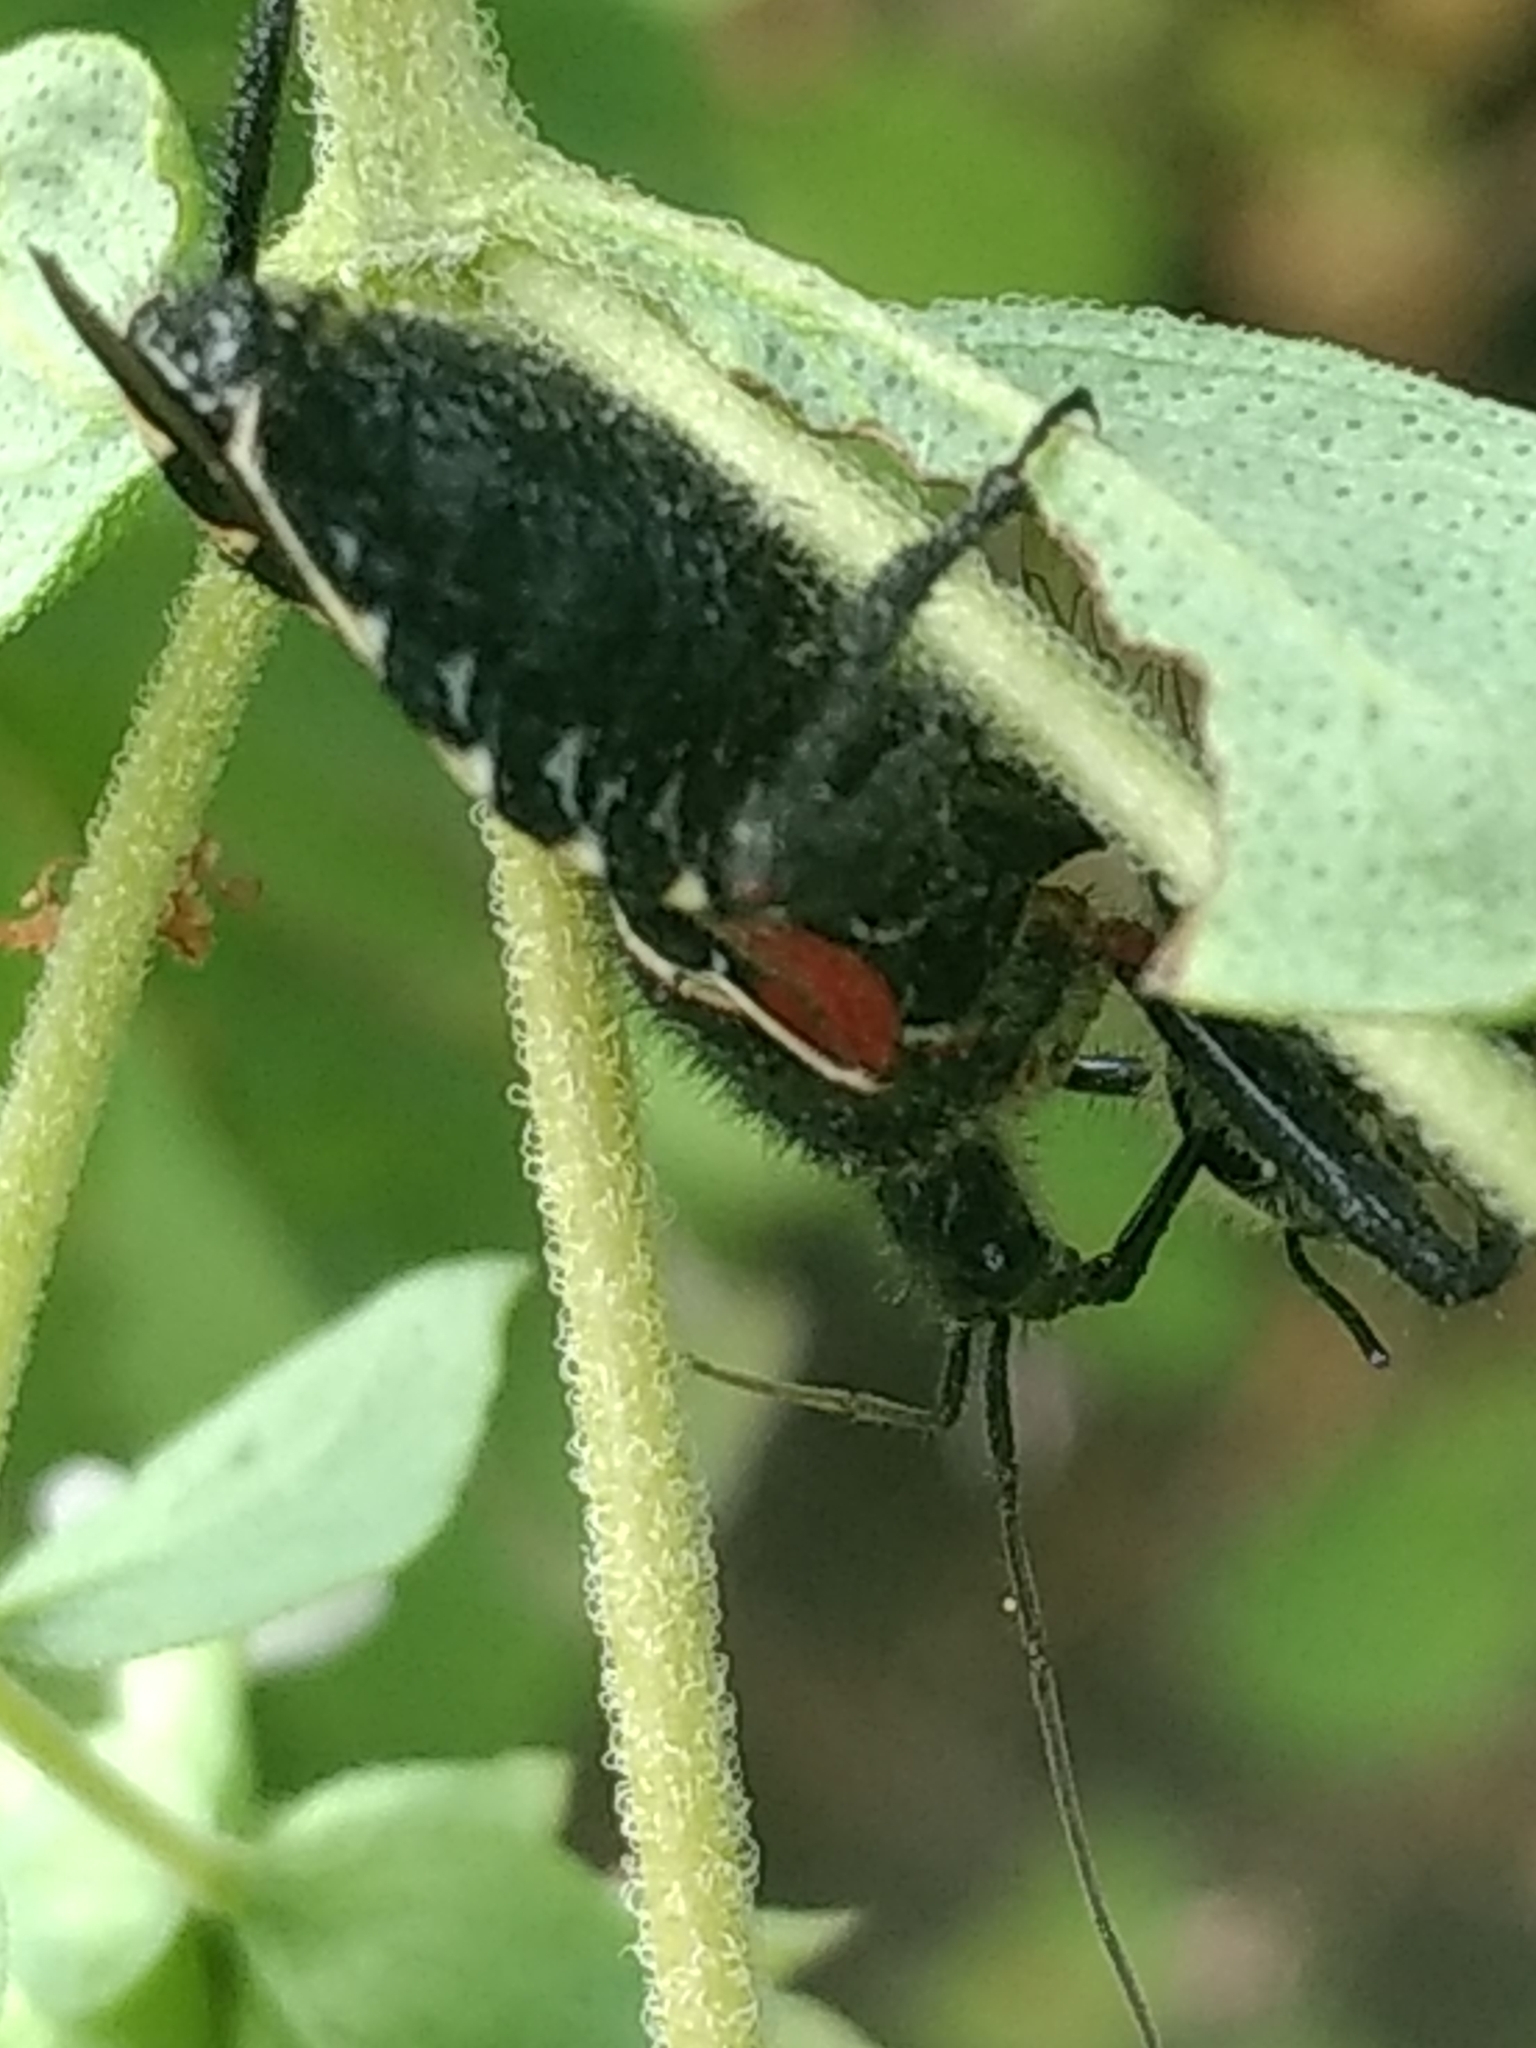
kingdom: Animalia
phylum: Arthropoda
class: Insecta
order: Hemiptera
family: Reduviidae
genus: Apiomerus
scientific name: Apiomerus montanus
